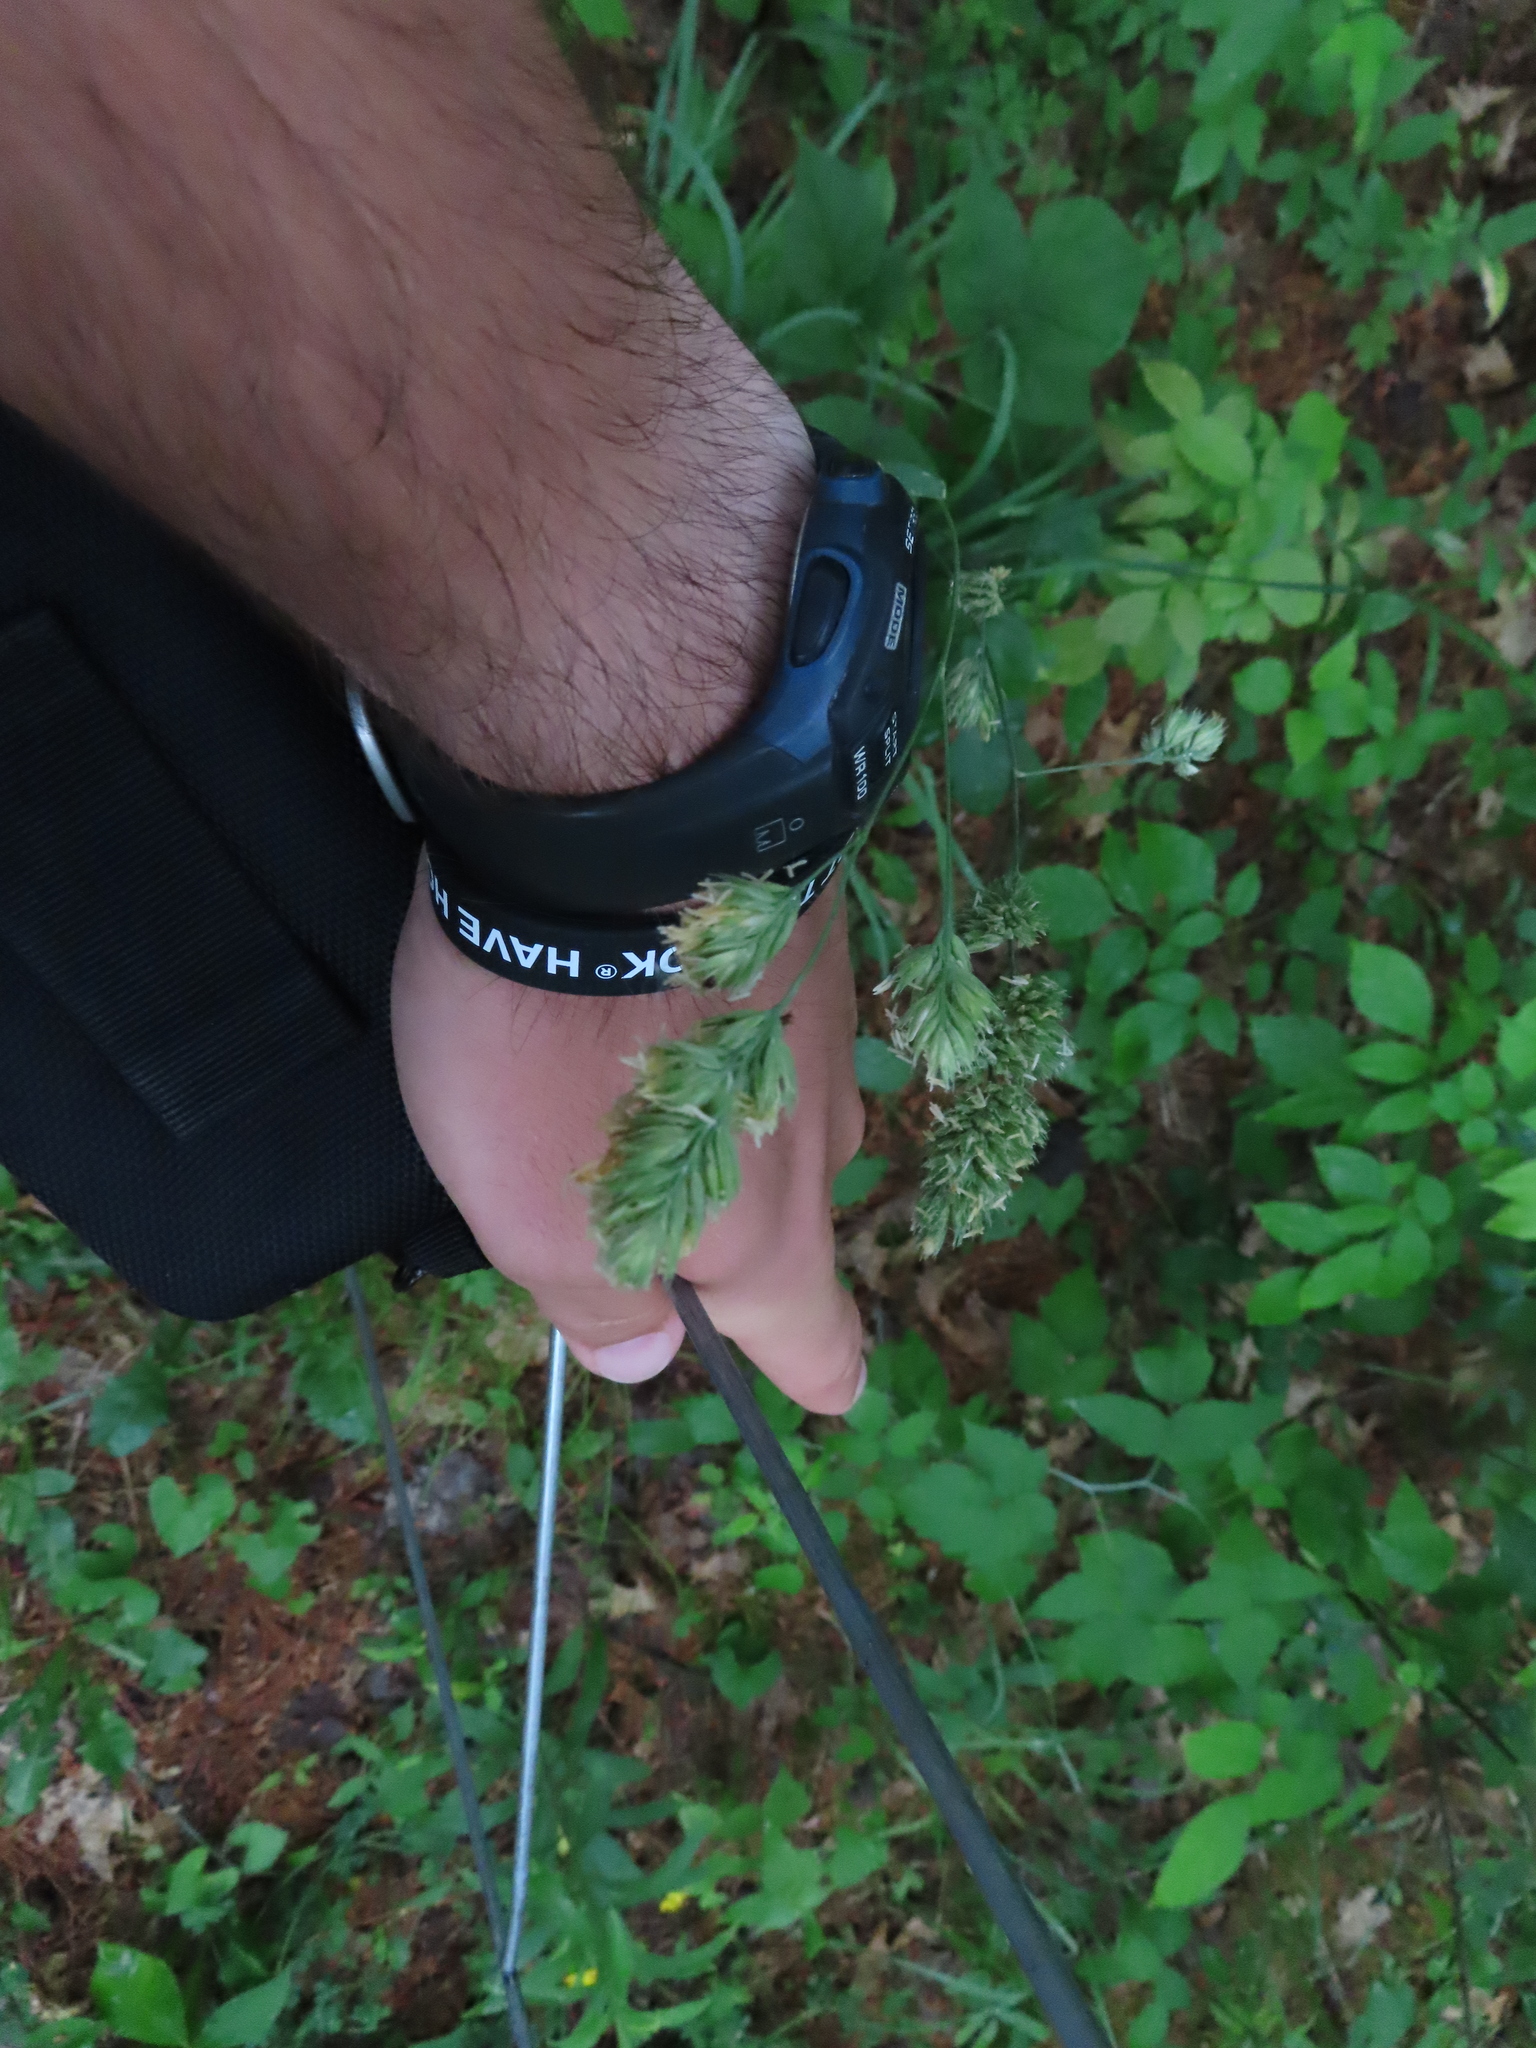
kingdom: Plantae
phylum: Tracheophyta
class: Liliopsida
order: Poales
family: Poaceae
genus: Dactylis
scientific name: Dactylis glomerata
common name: Orchardgrass
